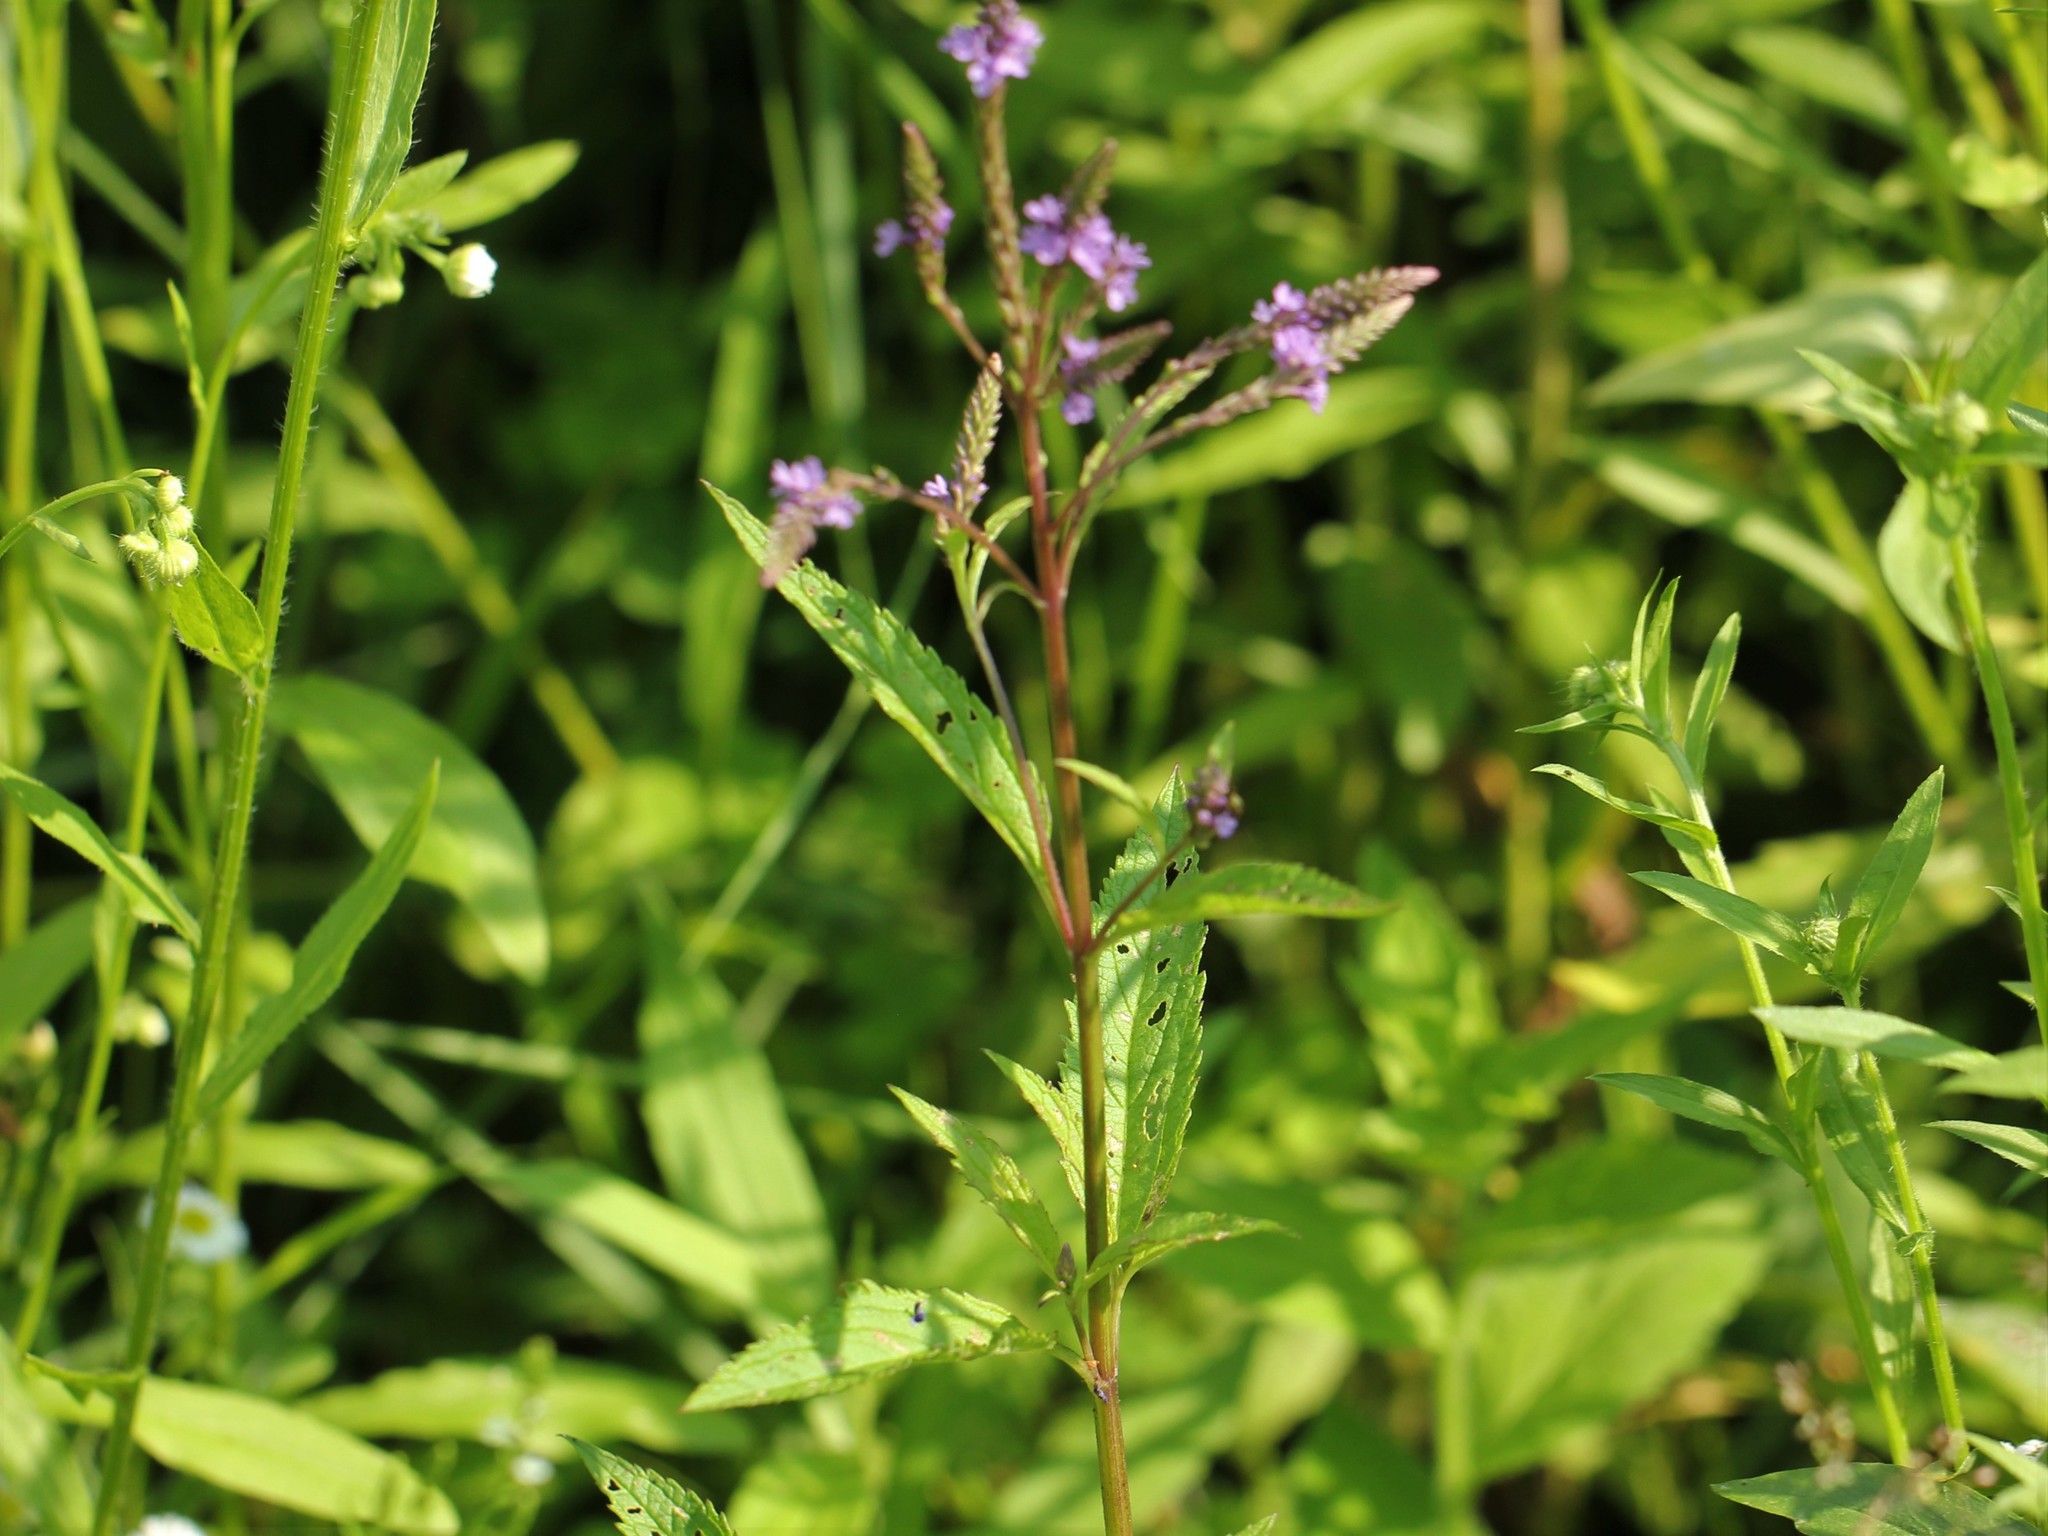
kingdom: Plantae
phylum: Tracheophyta
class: Magnoliopsida
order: Lamiales
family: Verbenaceae
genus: Verbena
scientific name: Verbena hastata
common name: American blue vervain
